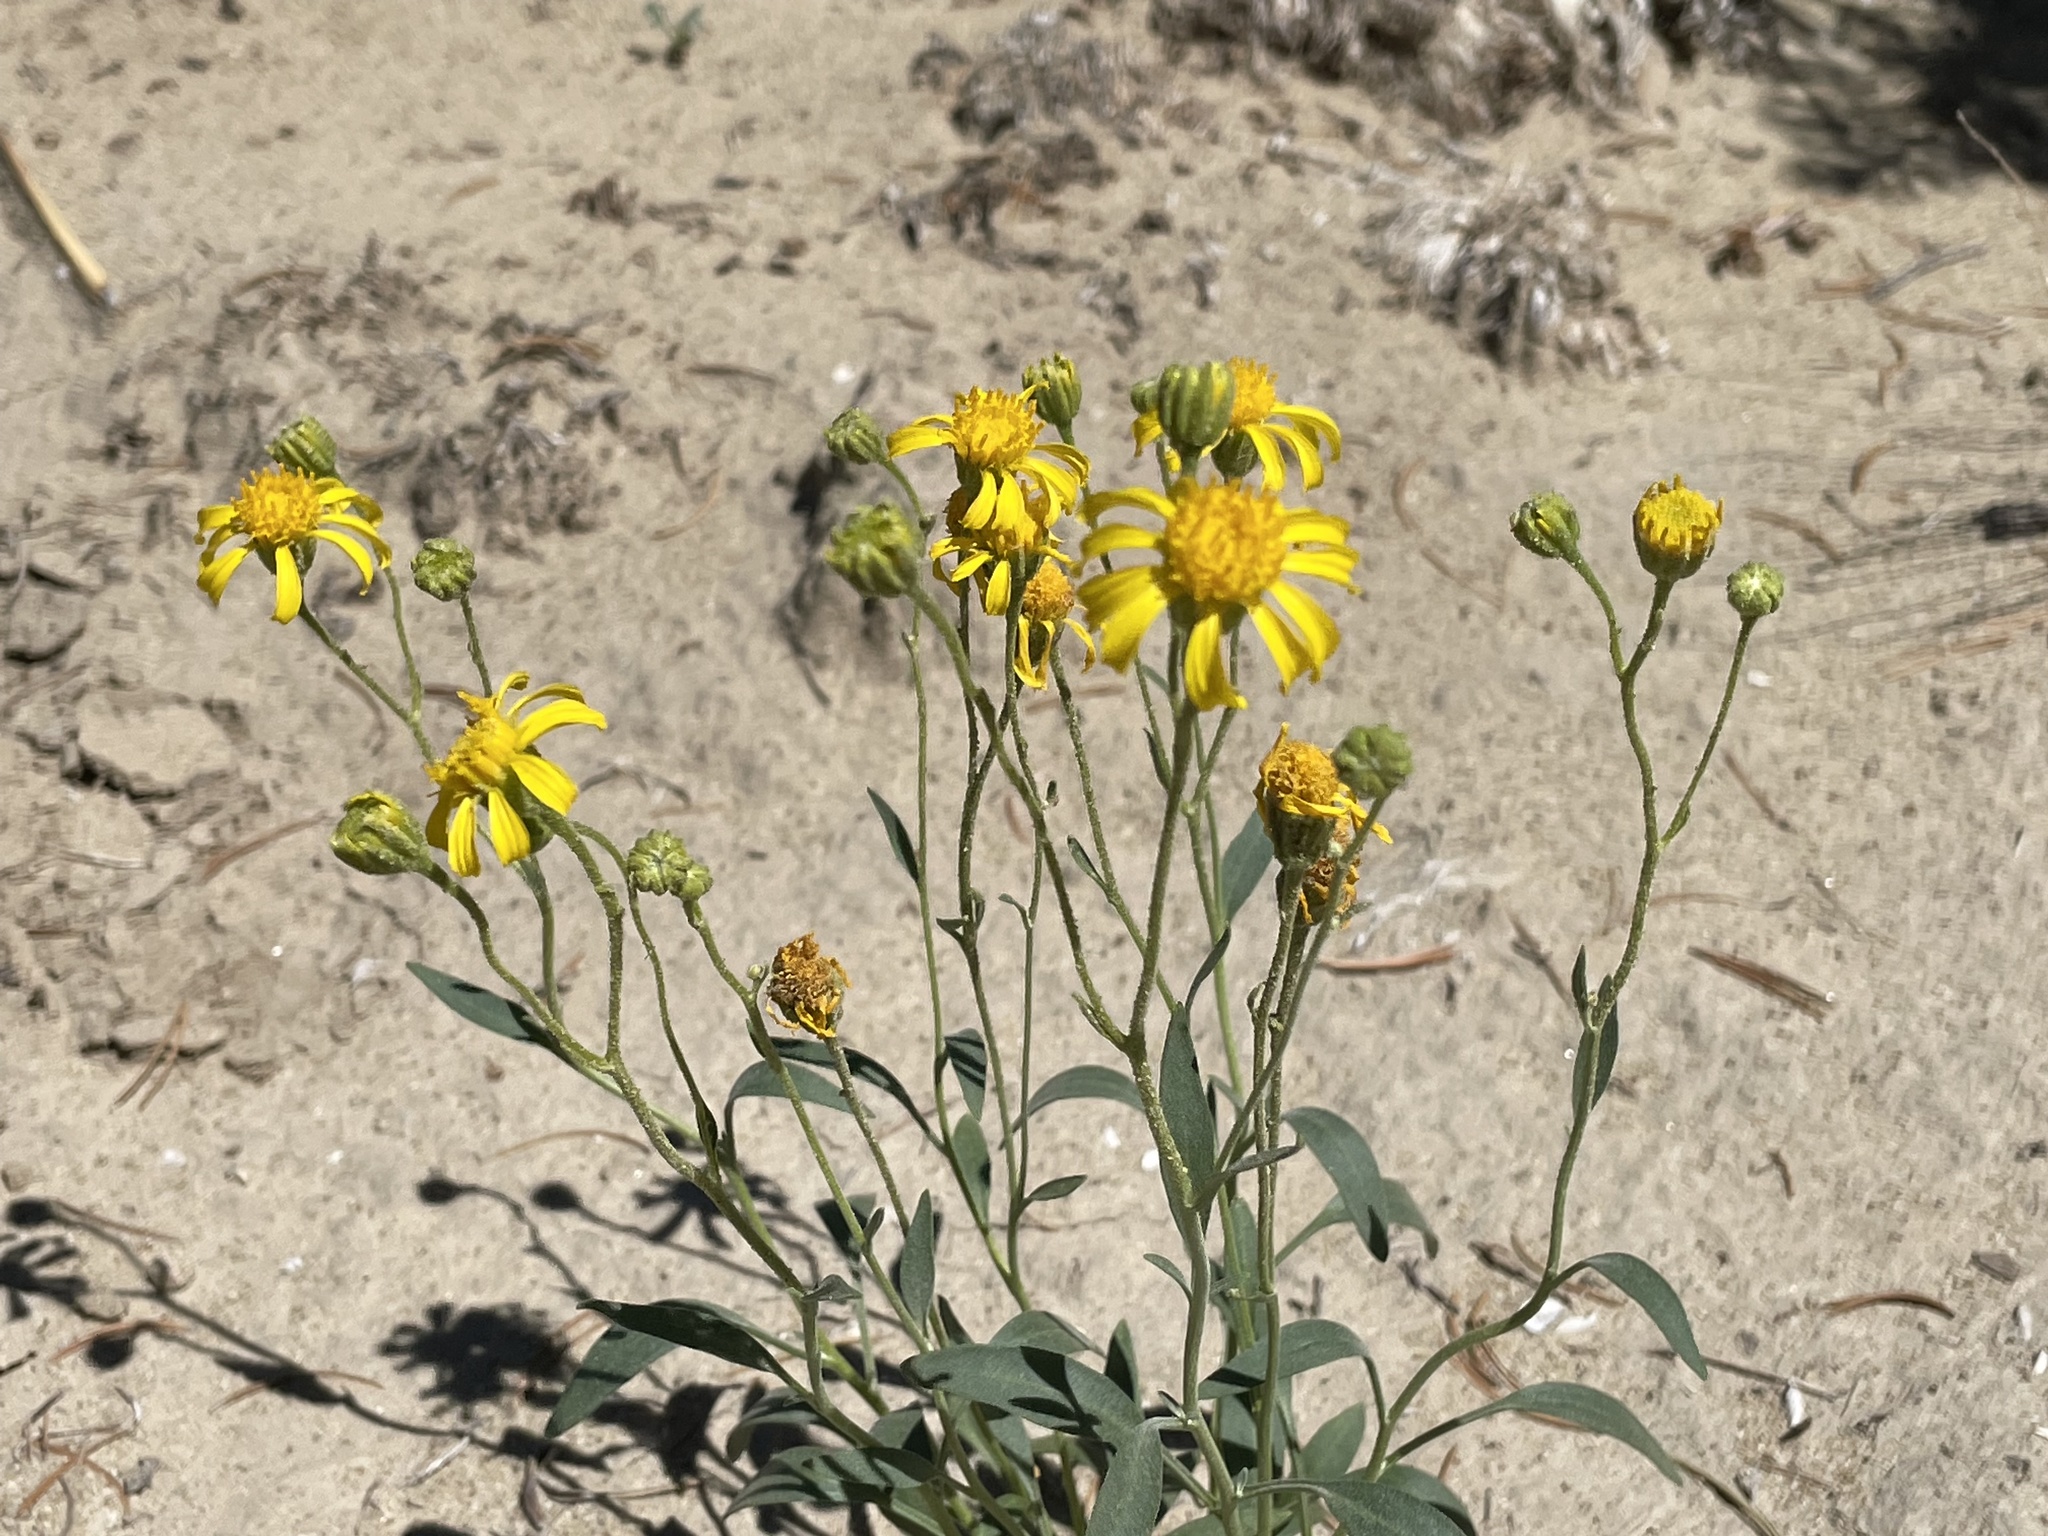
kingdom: Plantae
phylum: Tracheophyta
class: Magnoliopsida
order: Asterales
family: Asteraceae
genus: Platyschkuhria
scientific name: Platyschkuhria integrifolia
